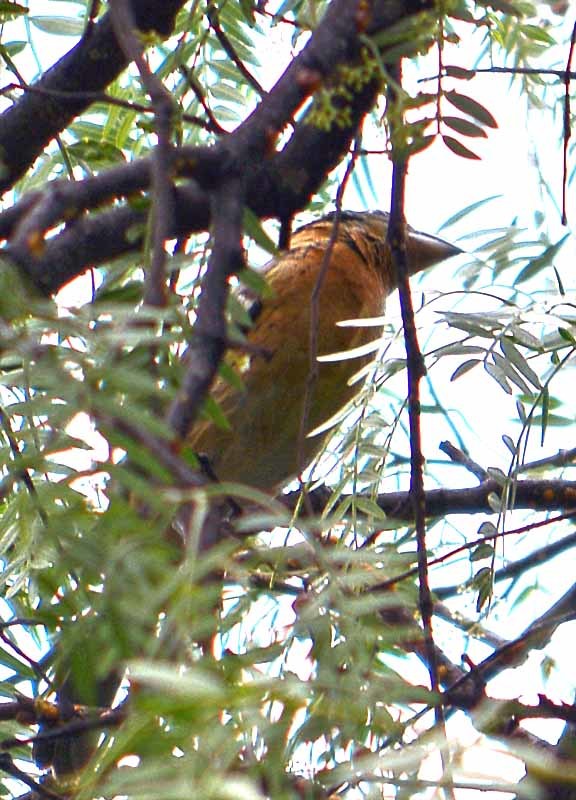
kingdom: Animalia
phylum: Chordata
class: Aves
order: Passeriformes
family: Cardinalidae
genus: Pheucticus
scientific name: Pheucticus melanocephalus
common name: Black-headed grosbeak
